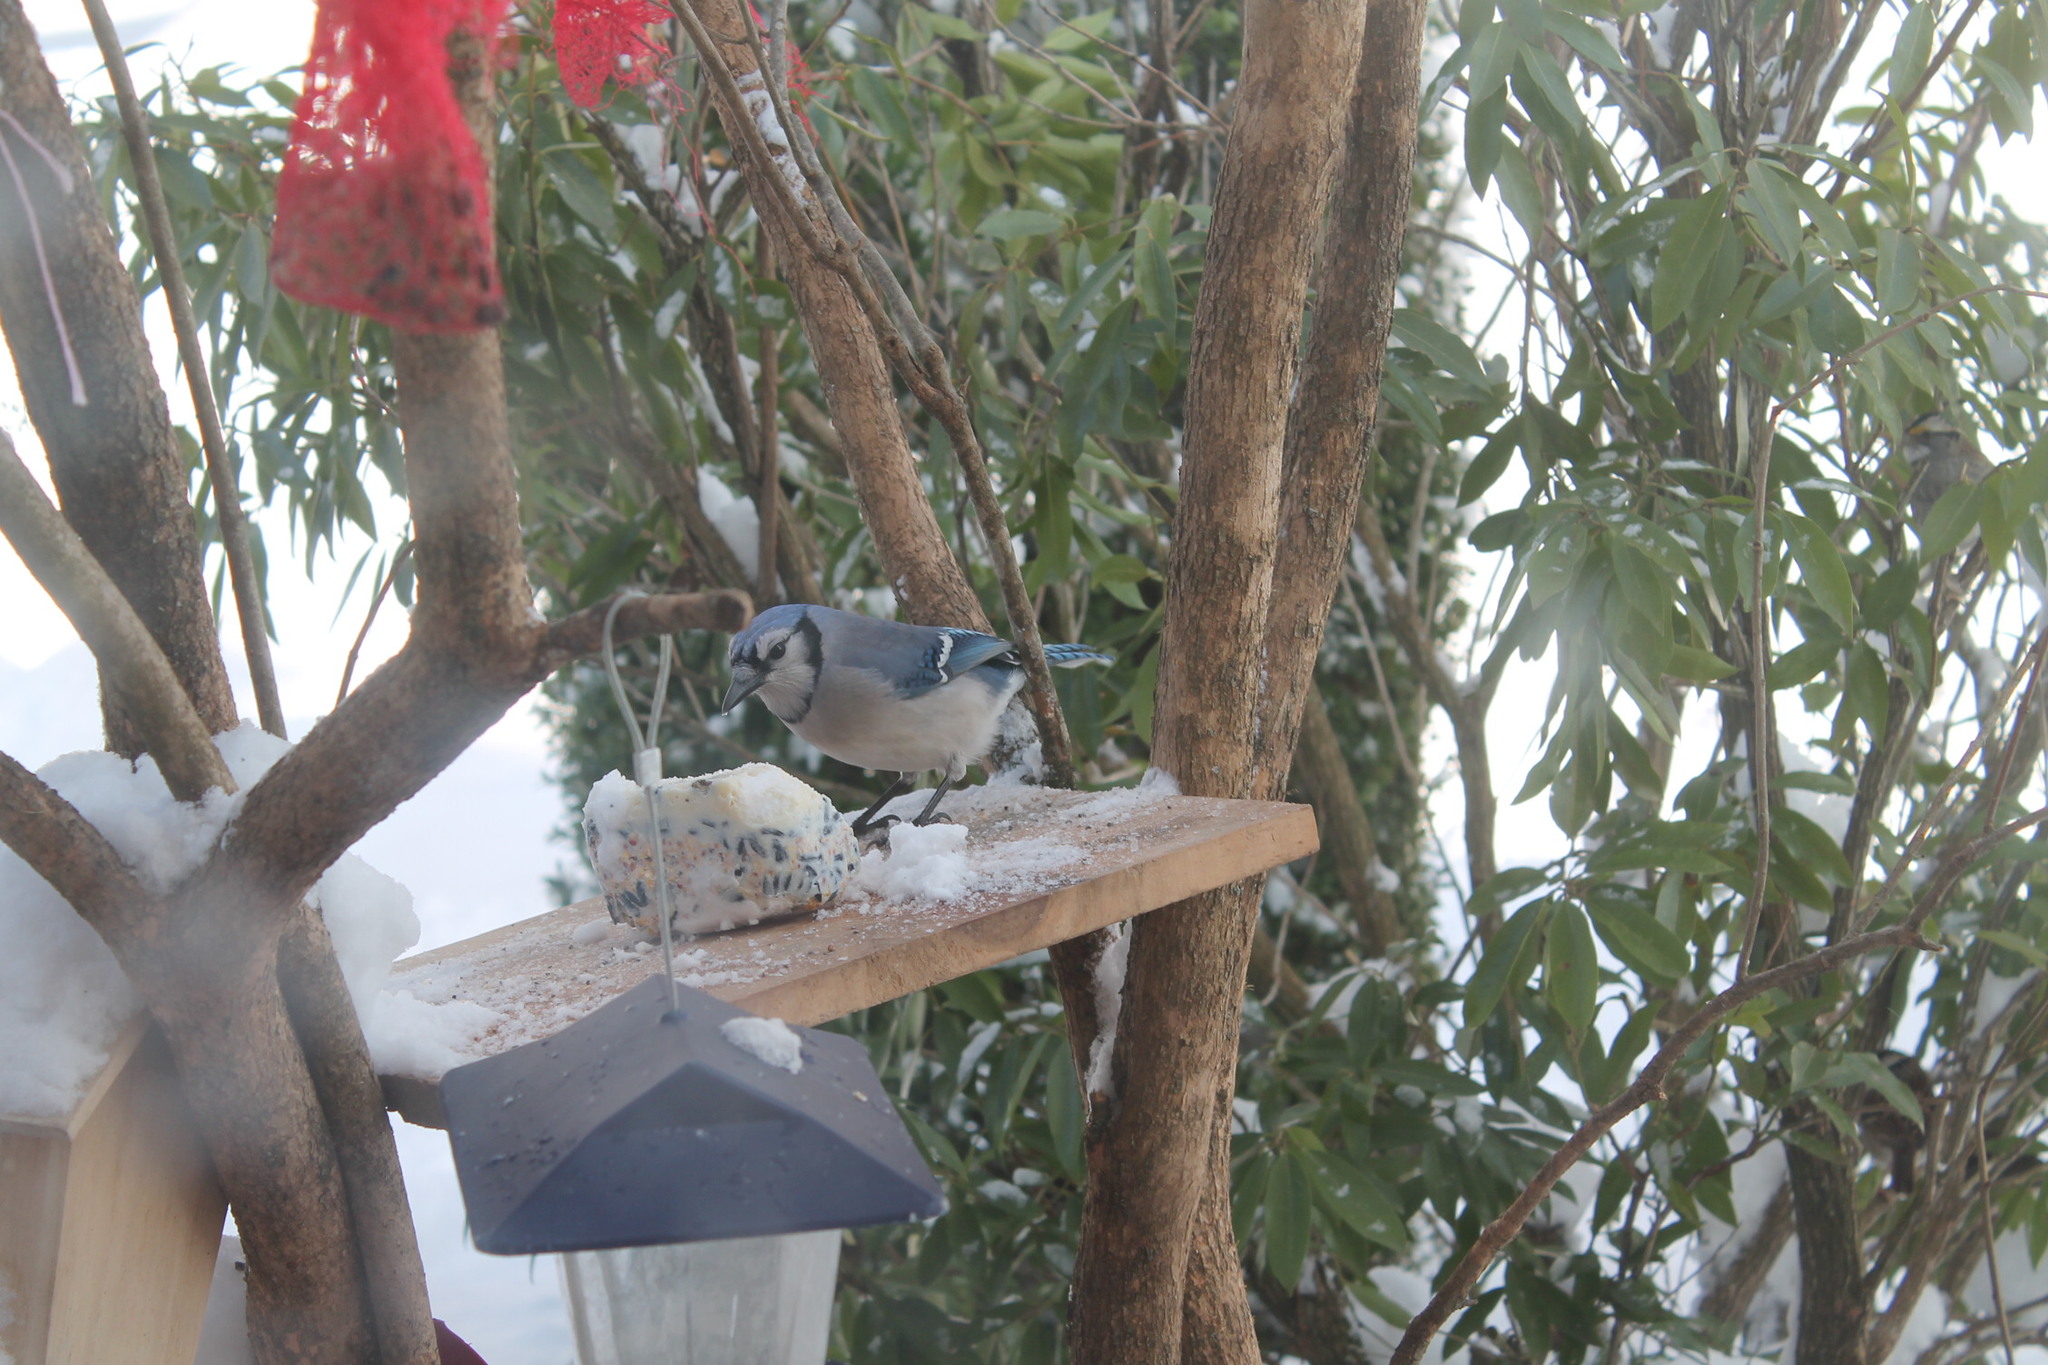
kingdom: Animalia
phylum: Chordata
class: Aves
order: Passeriformes
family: Corvidae
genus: Cyanocitta
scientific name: Cyanocitta cristata
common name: Blue jay
